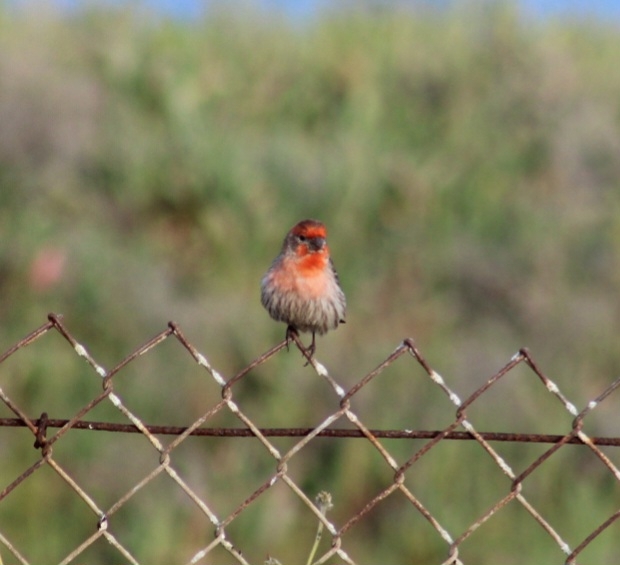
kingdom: Animalia
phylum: Chordata
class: Aves
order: Passeriformes
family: Fringillidae
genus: Haemorhous
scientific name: Haemorhous mexicanus
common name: House finch
